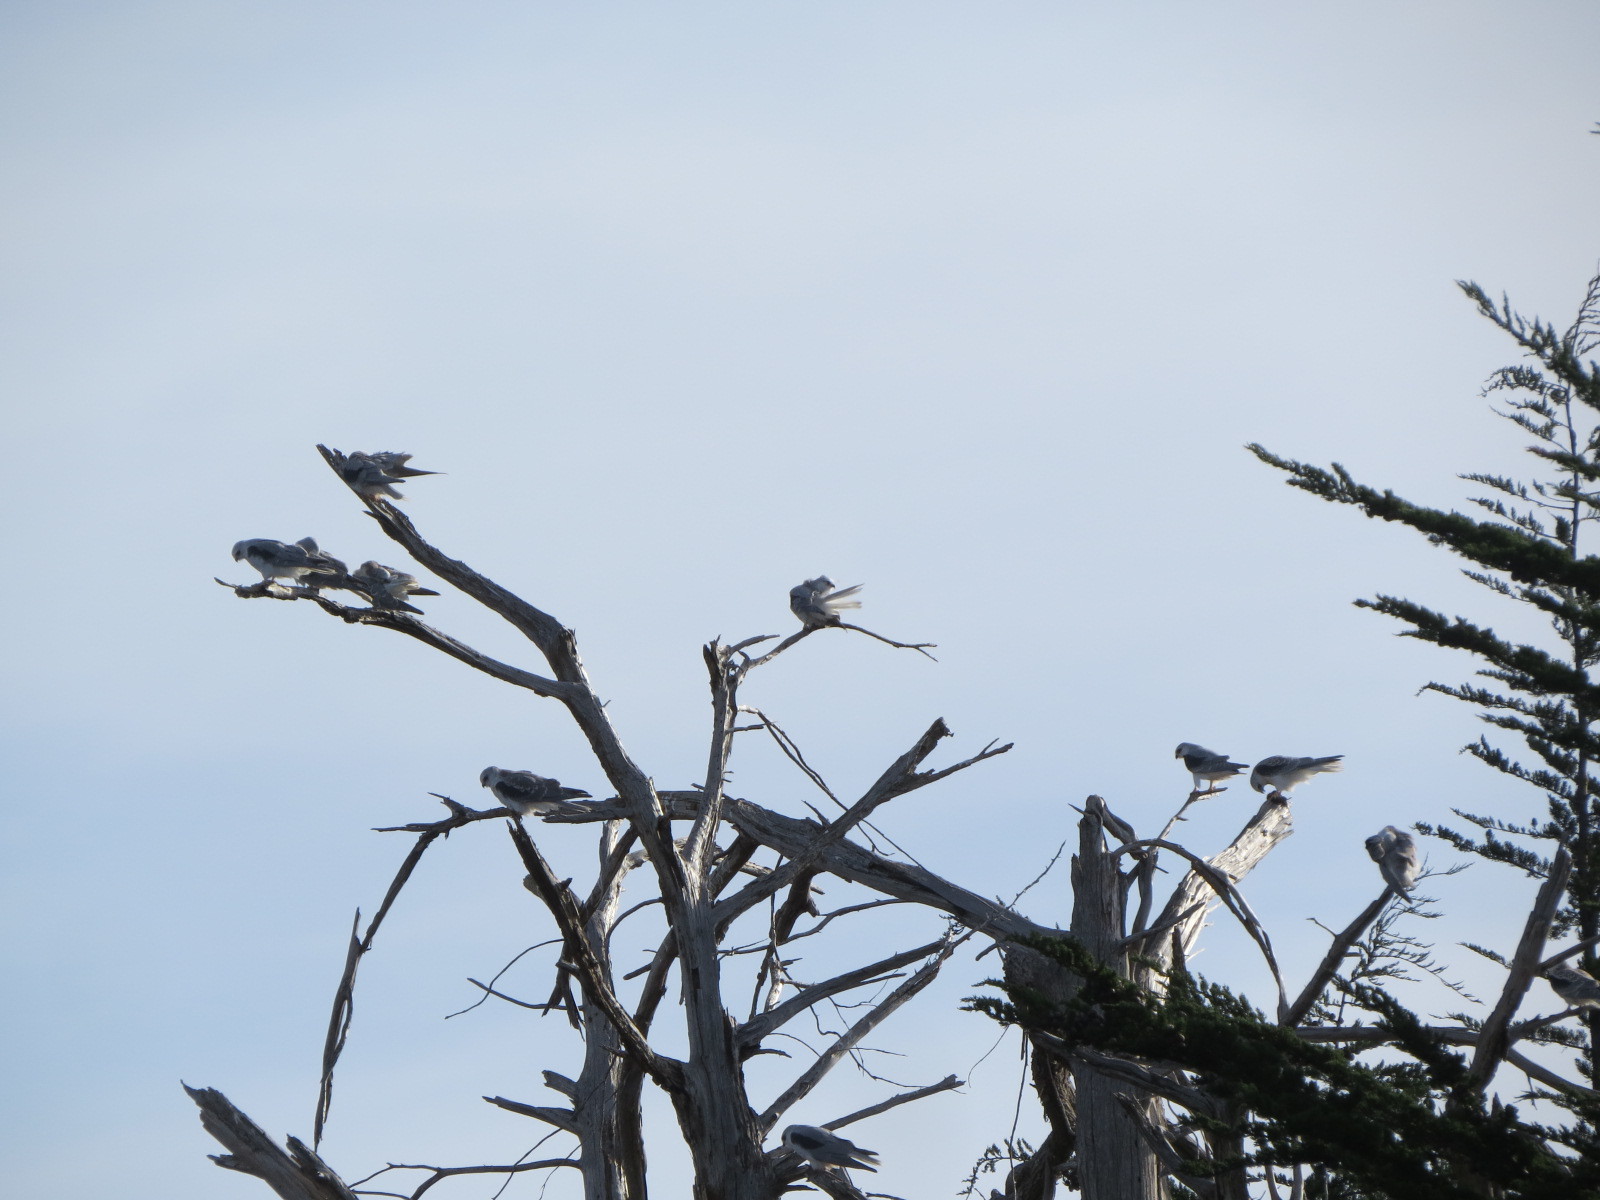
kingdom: Animalia
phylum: Chordata
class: Aves
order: Accipitriformes
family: Accipitridae
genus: Elanus
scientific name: Elanus leucurus
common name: White-tailed kite
